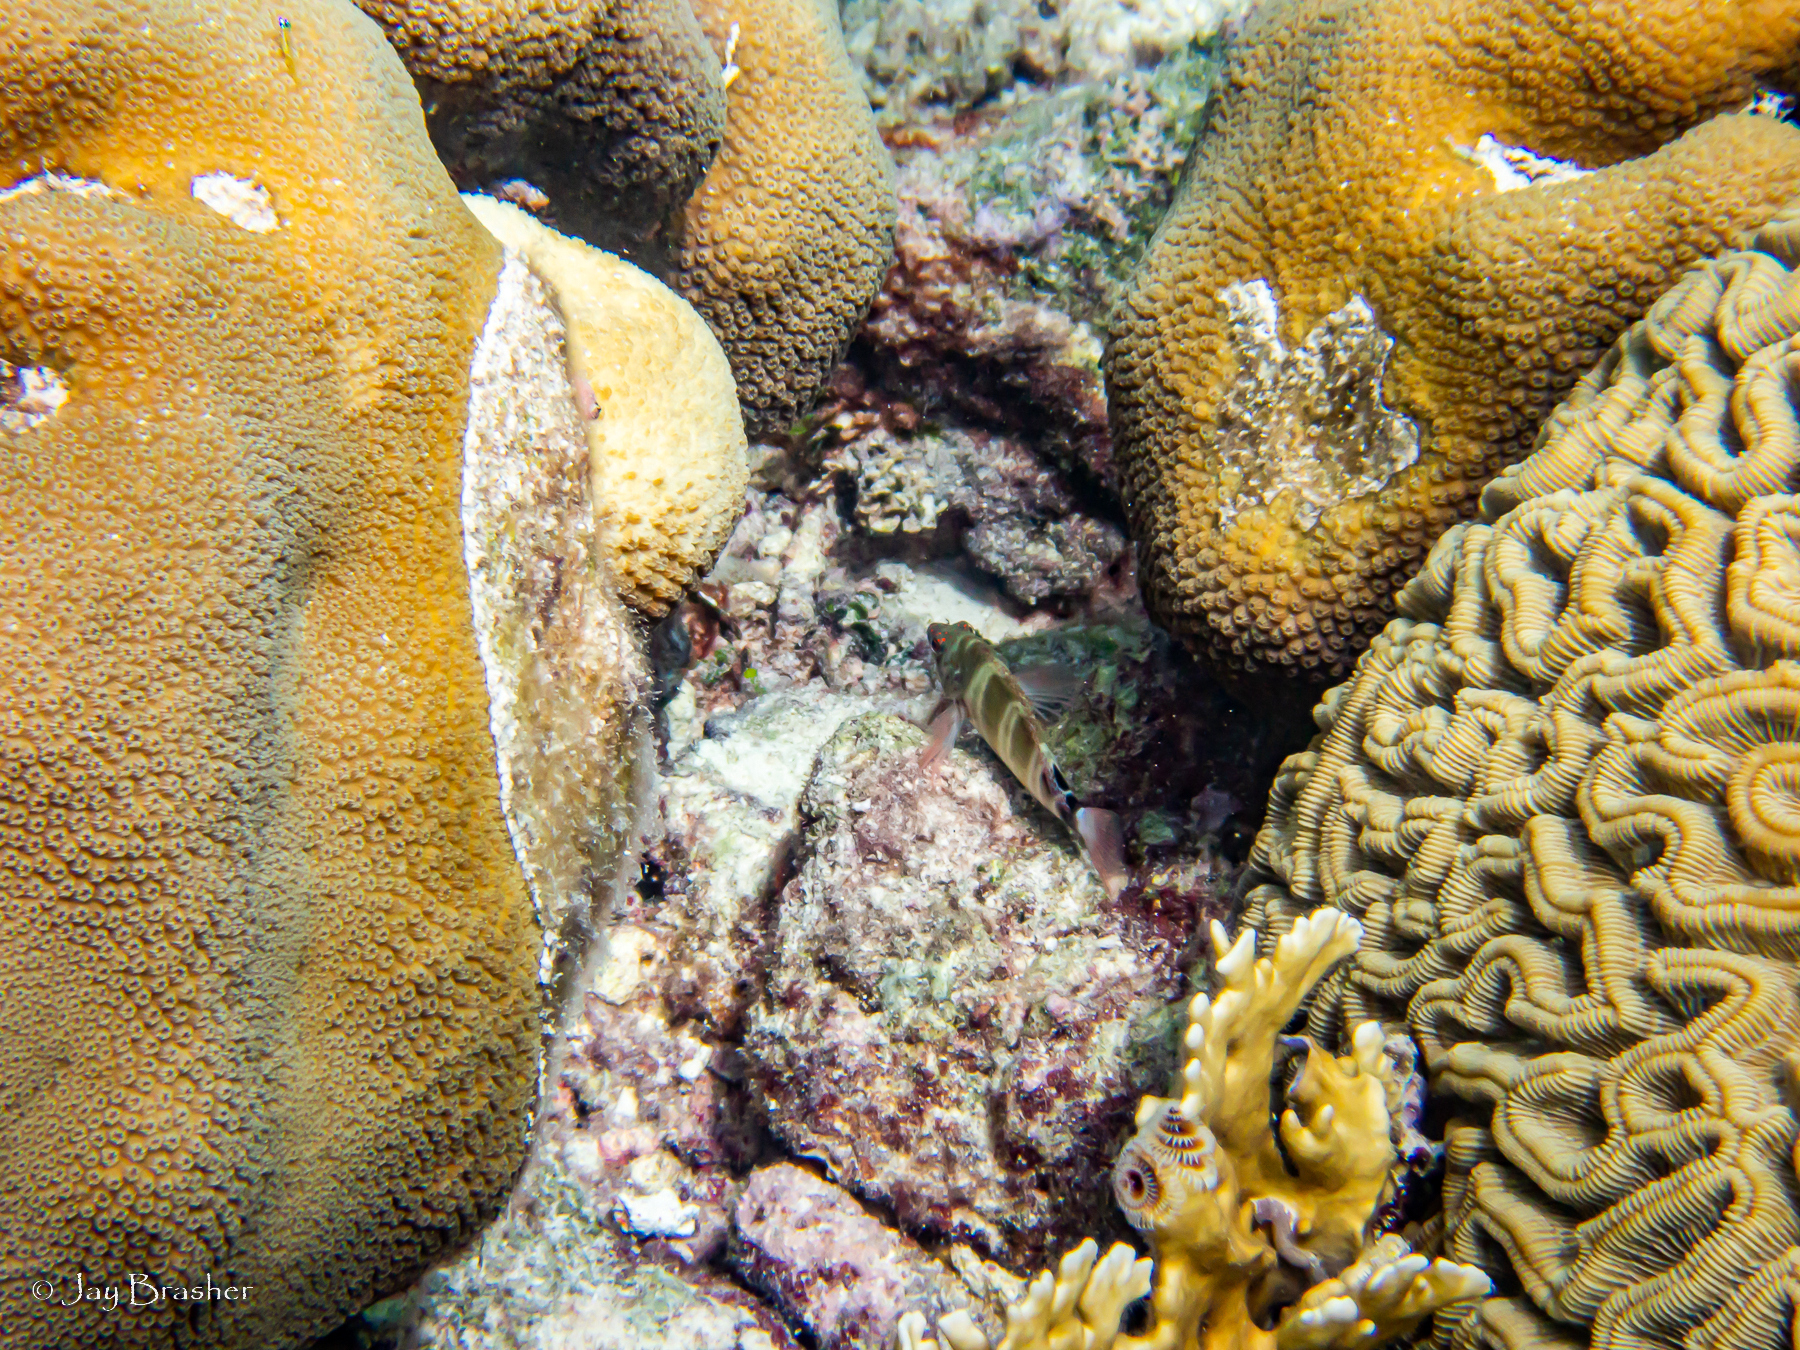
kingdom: Animalia
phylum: Cnidaria
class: Anthozoa
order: Scleractinia
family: Faviidae
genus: Colpophyllia
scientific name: Colpophyllia natans
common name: Boulder brain coral
